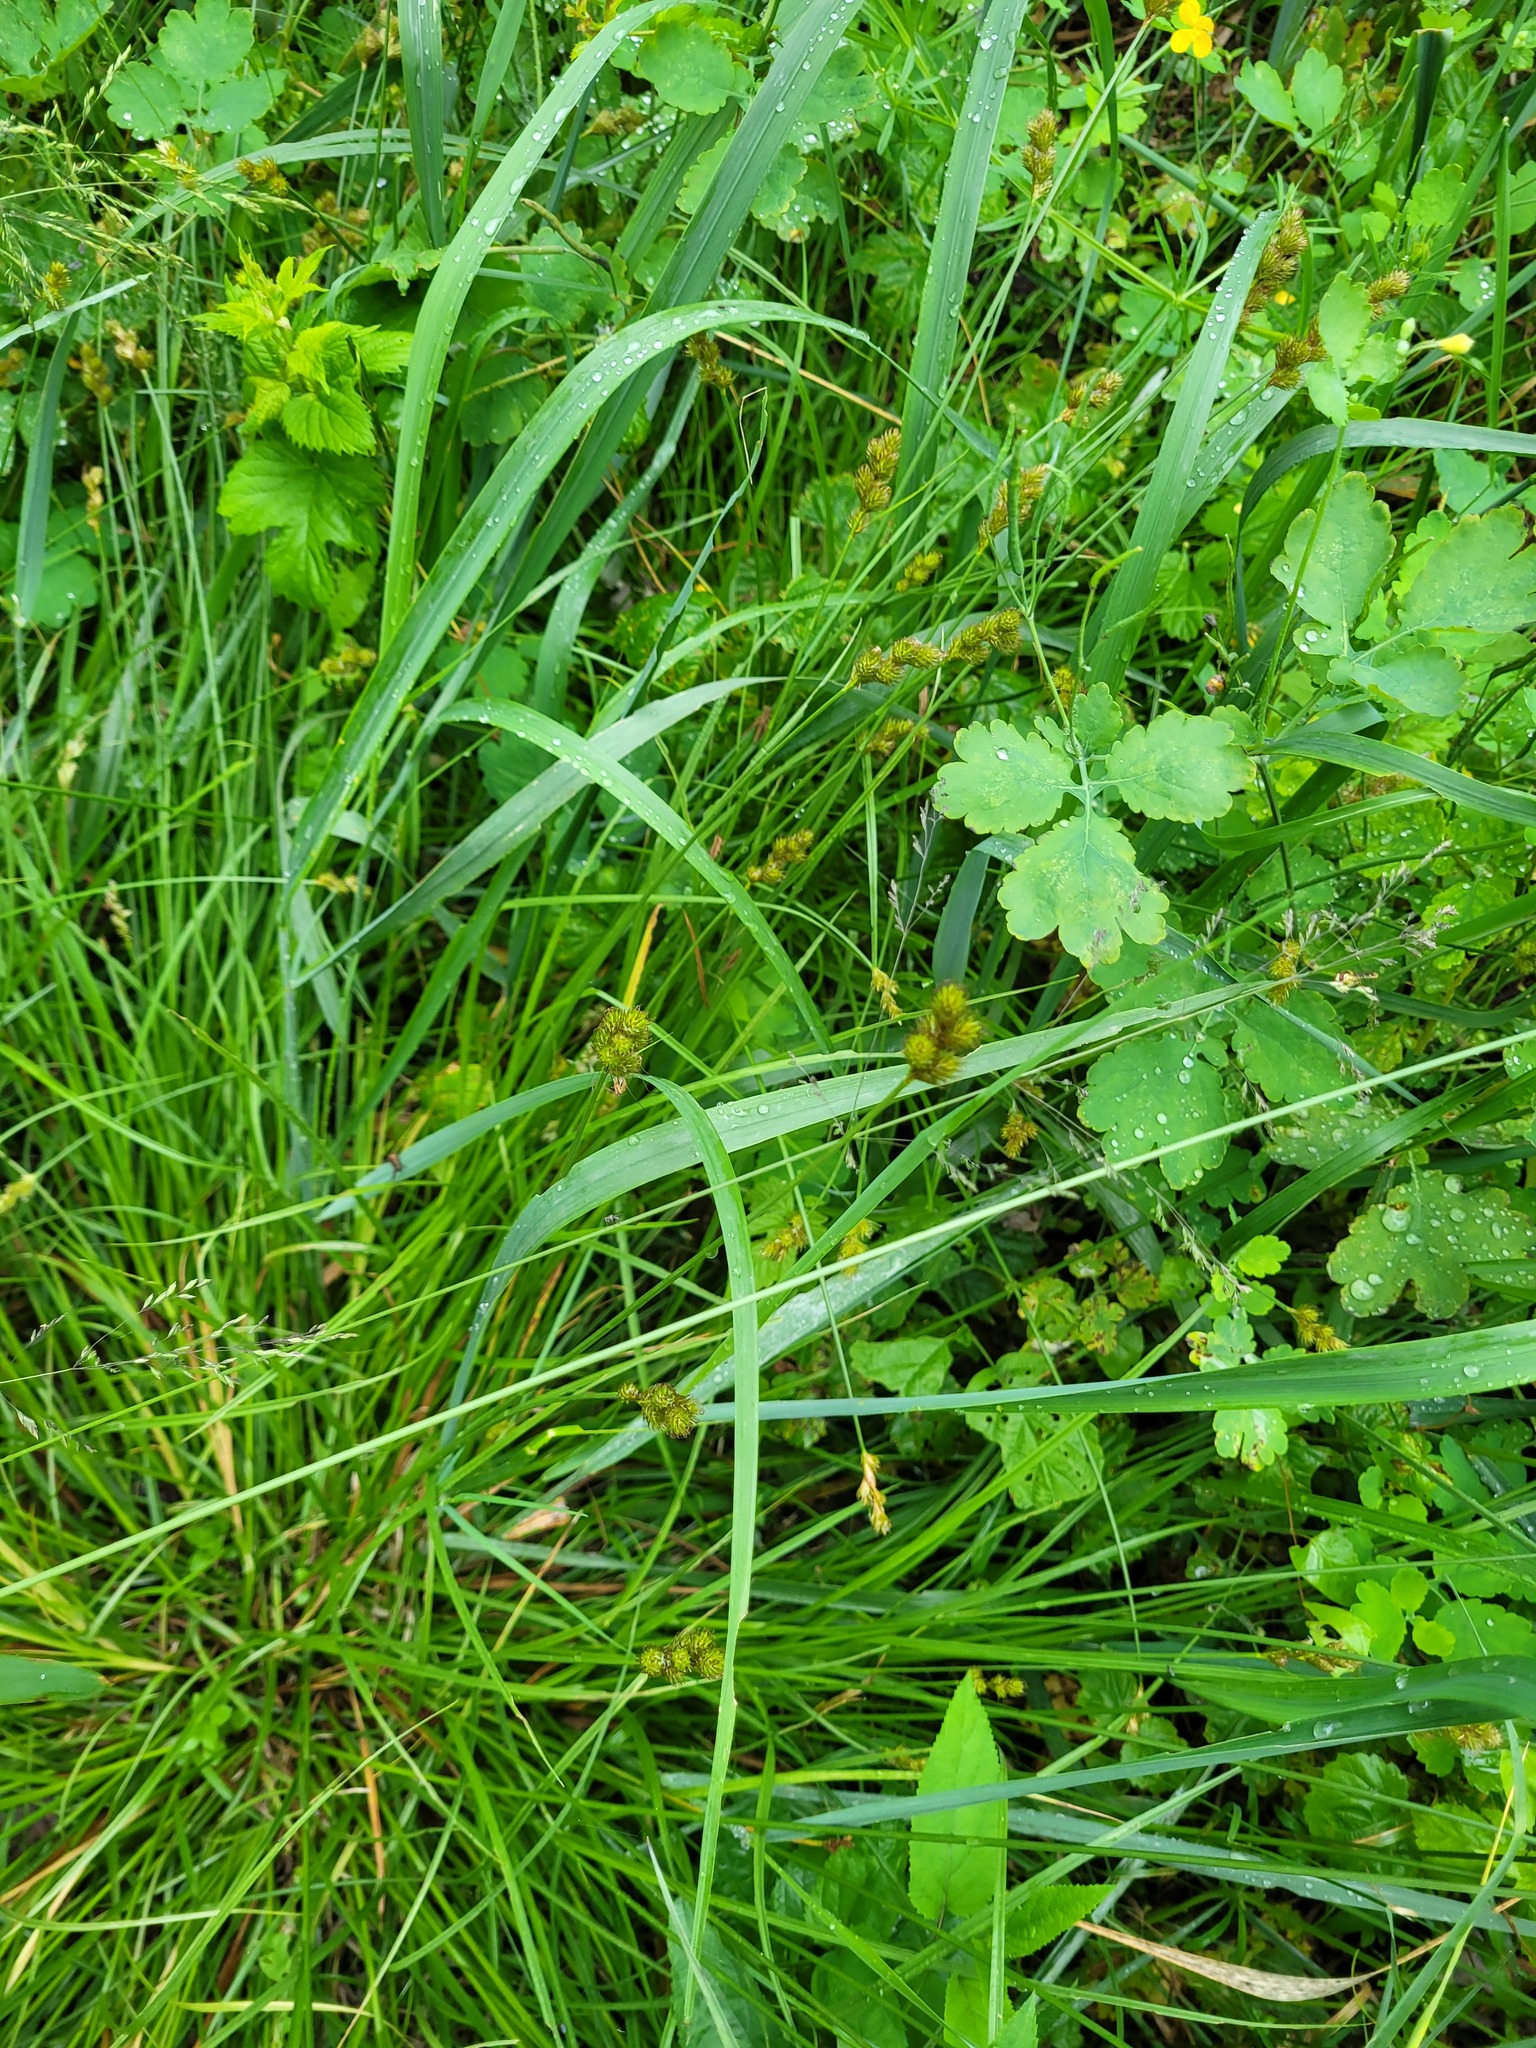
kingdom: Plantae
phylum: Tracheophyta
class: Liliopsida
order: Poales
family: Cyperaceae
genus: Carex
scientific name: Carex leporina
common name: Oval sedge
